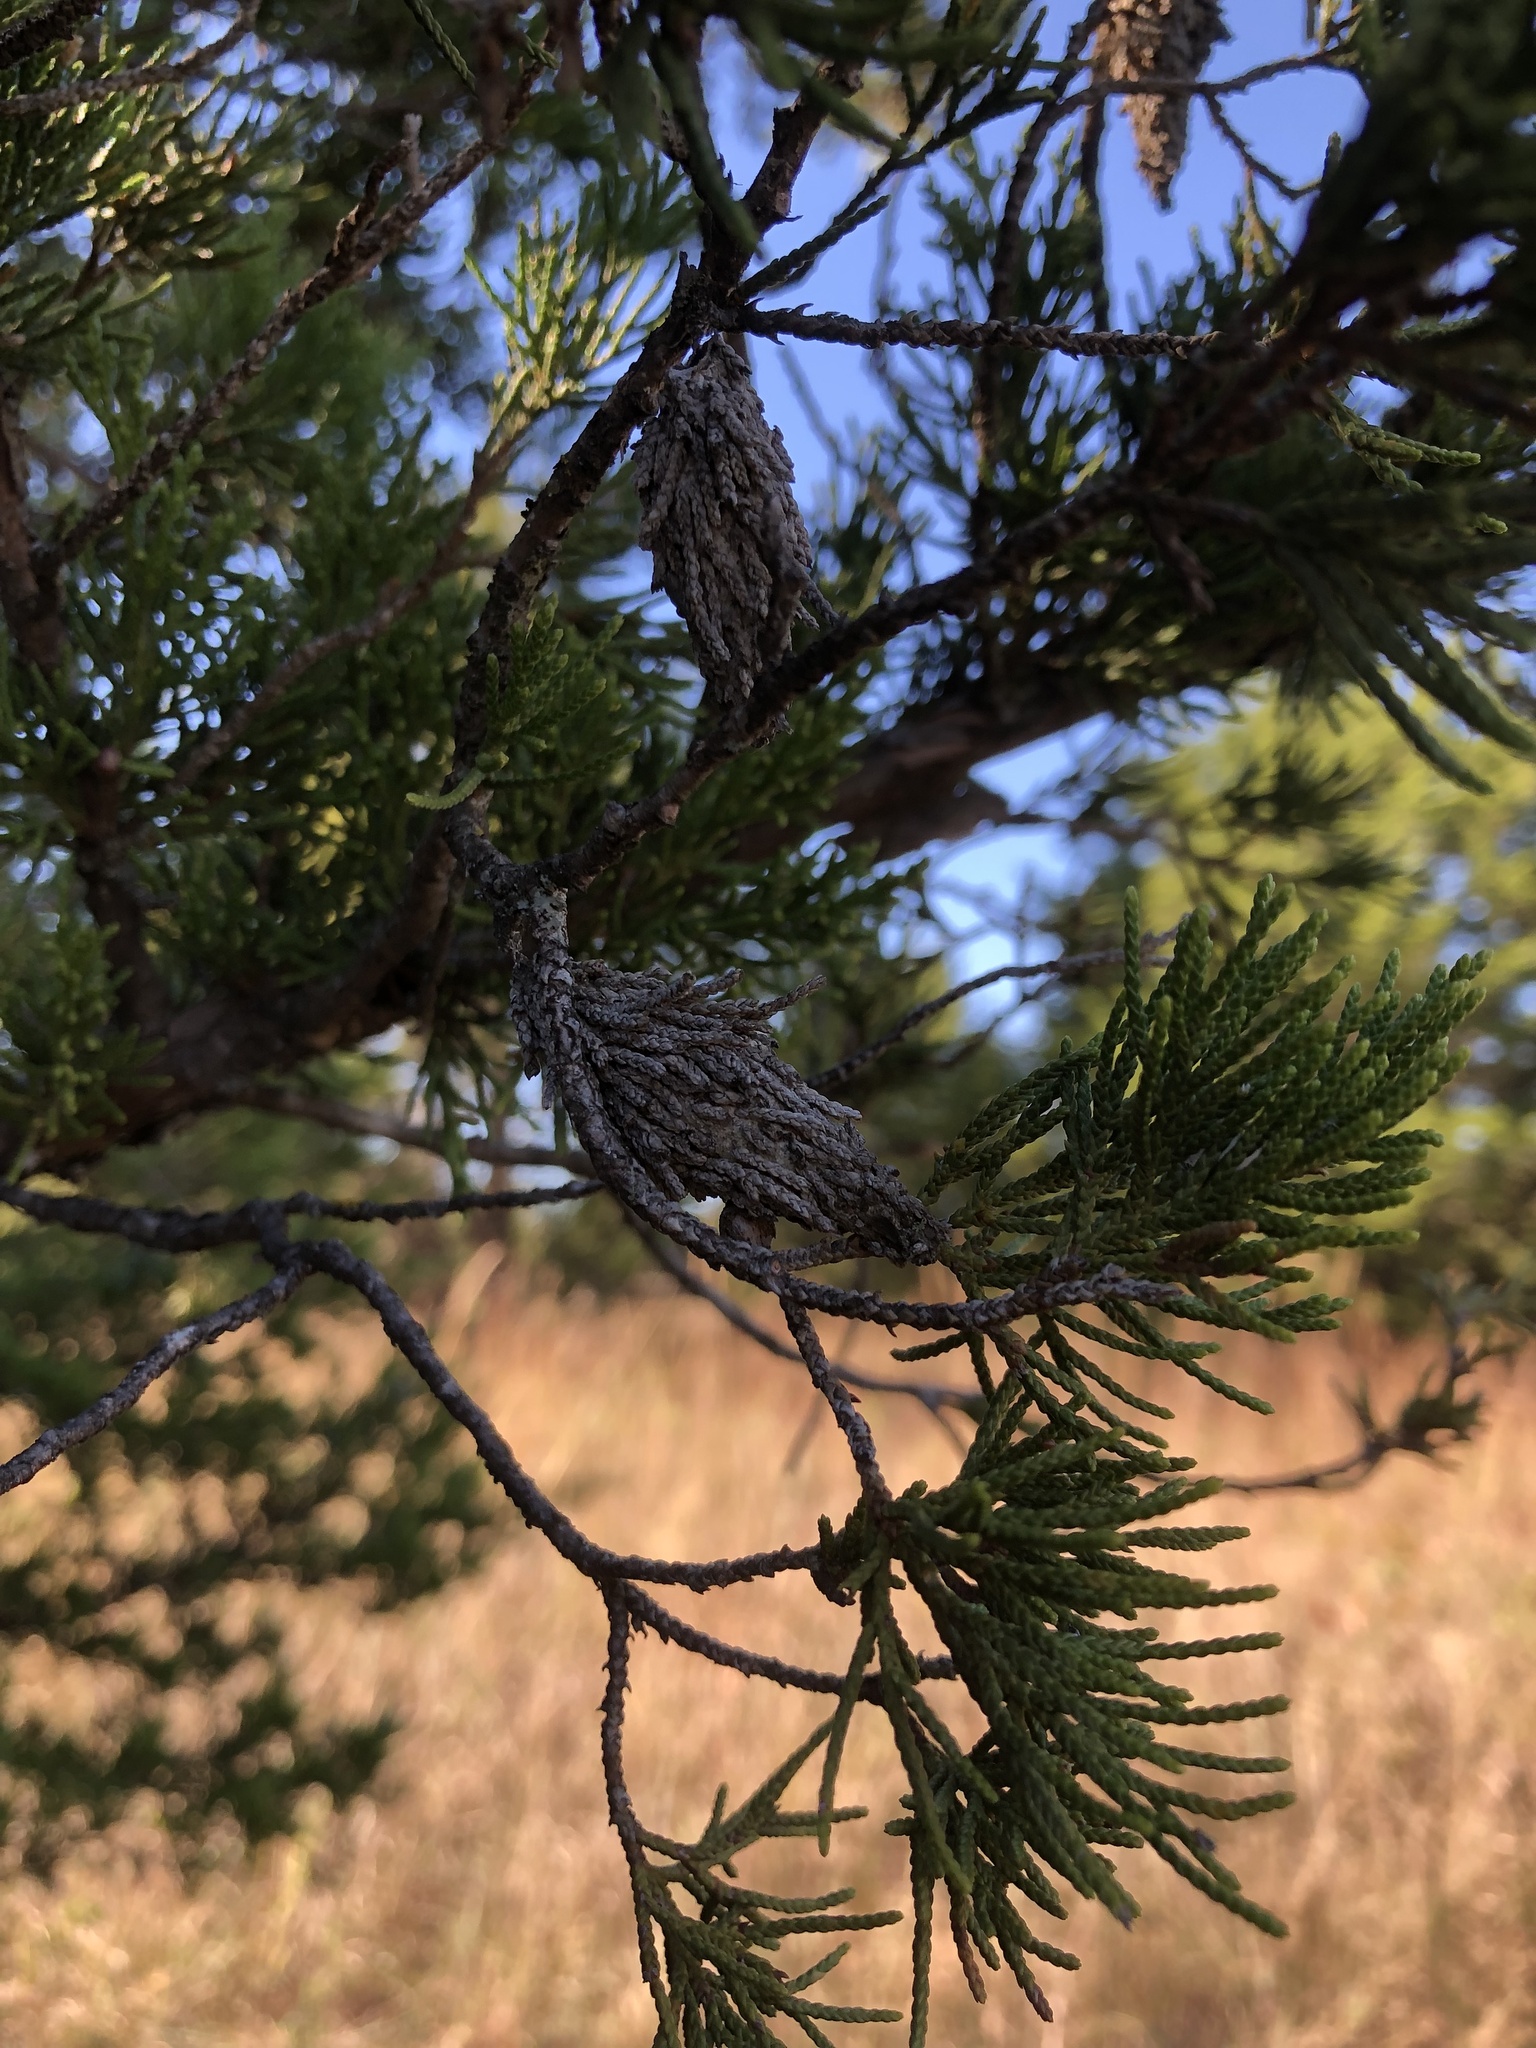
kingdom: Animalia
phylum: Arthropoda
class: Insecta
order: Lepidoptera
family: Psychidae
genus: Thyridopteryx
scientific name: Thyridopteryx ephemeraeformis
